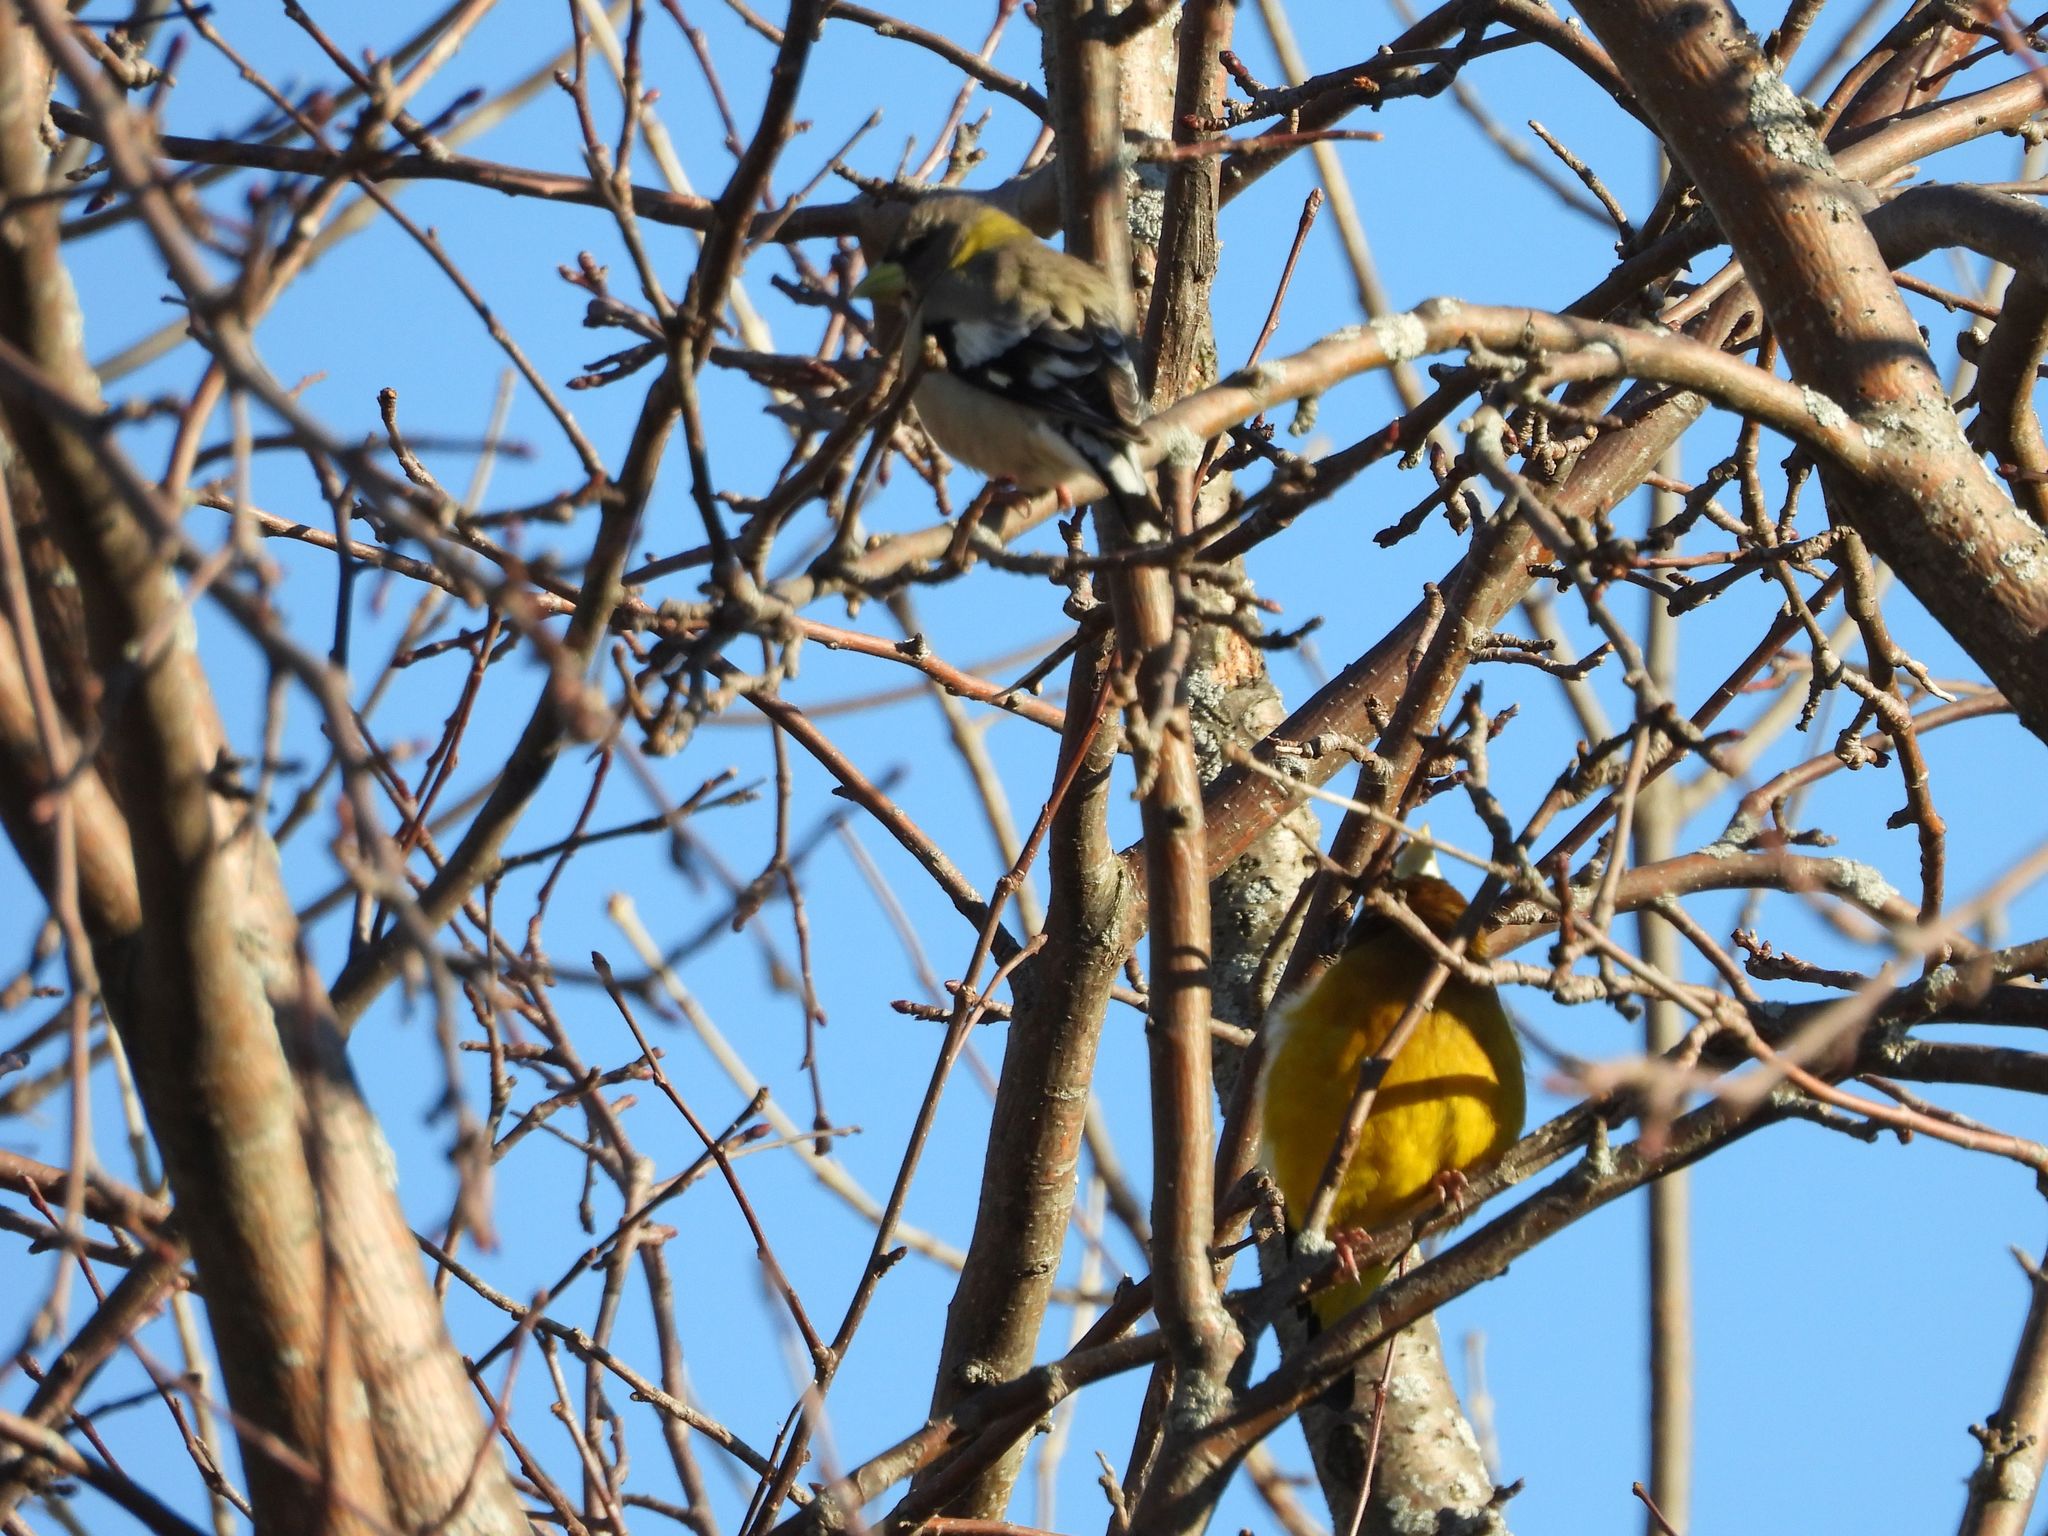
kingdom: Animalia
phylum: Chordata
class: Aves
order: Passeriformes
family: Fringillidae
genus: Hesperiphona
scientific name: Hesperiphona vespertina
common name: Evening grosbeak
